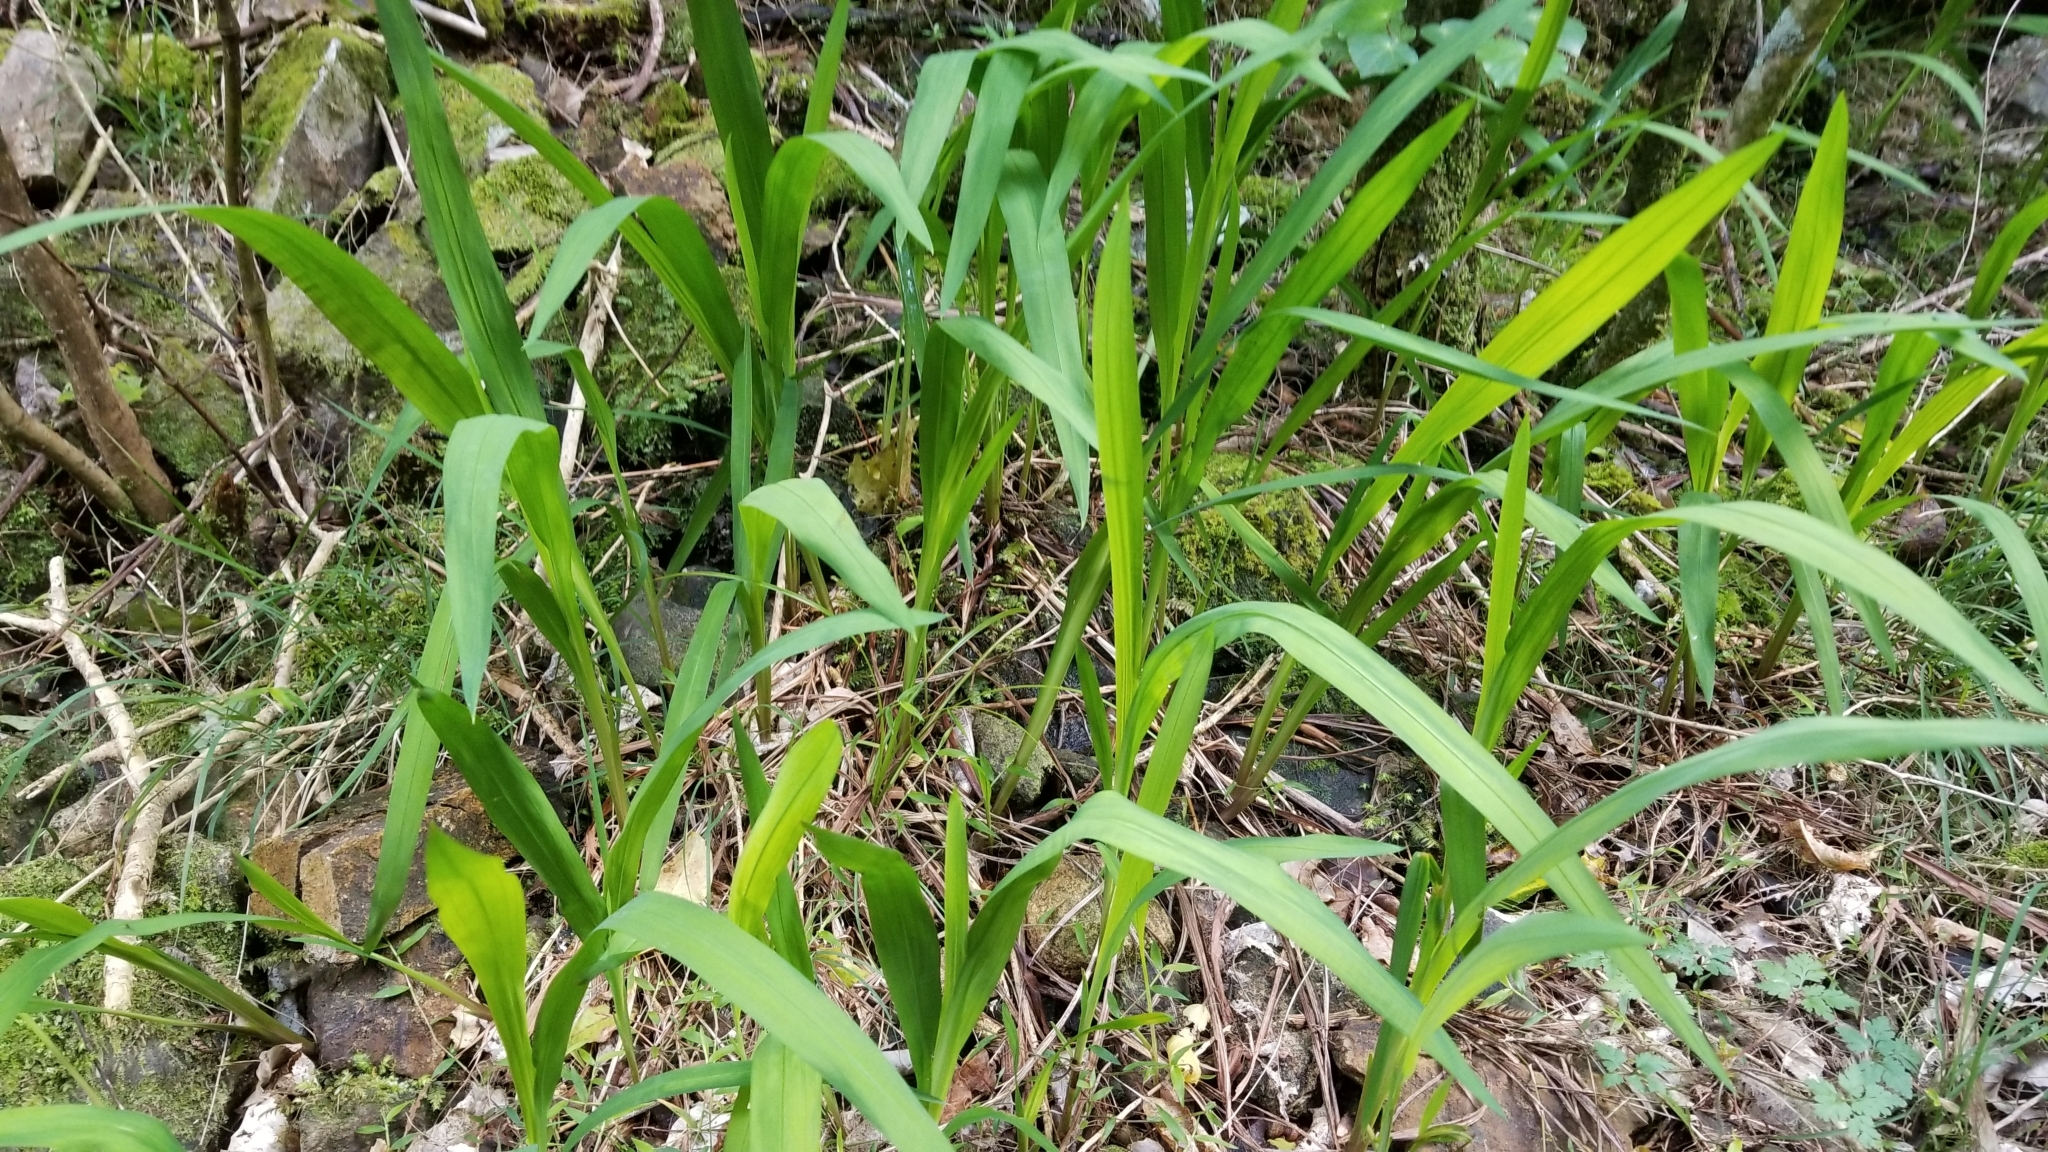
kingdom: Plantae
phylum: Tracheophyta
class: Liliopsida
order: Asparagales
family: Iridaceae
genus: Crocosmia
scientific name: Crocosmia crocosmiiflora
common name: Montbretia
